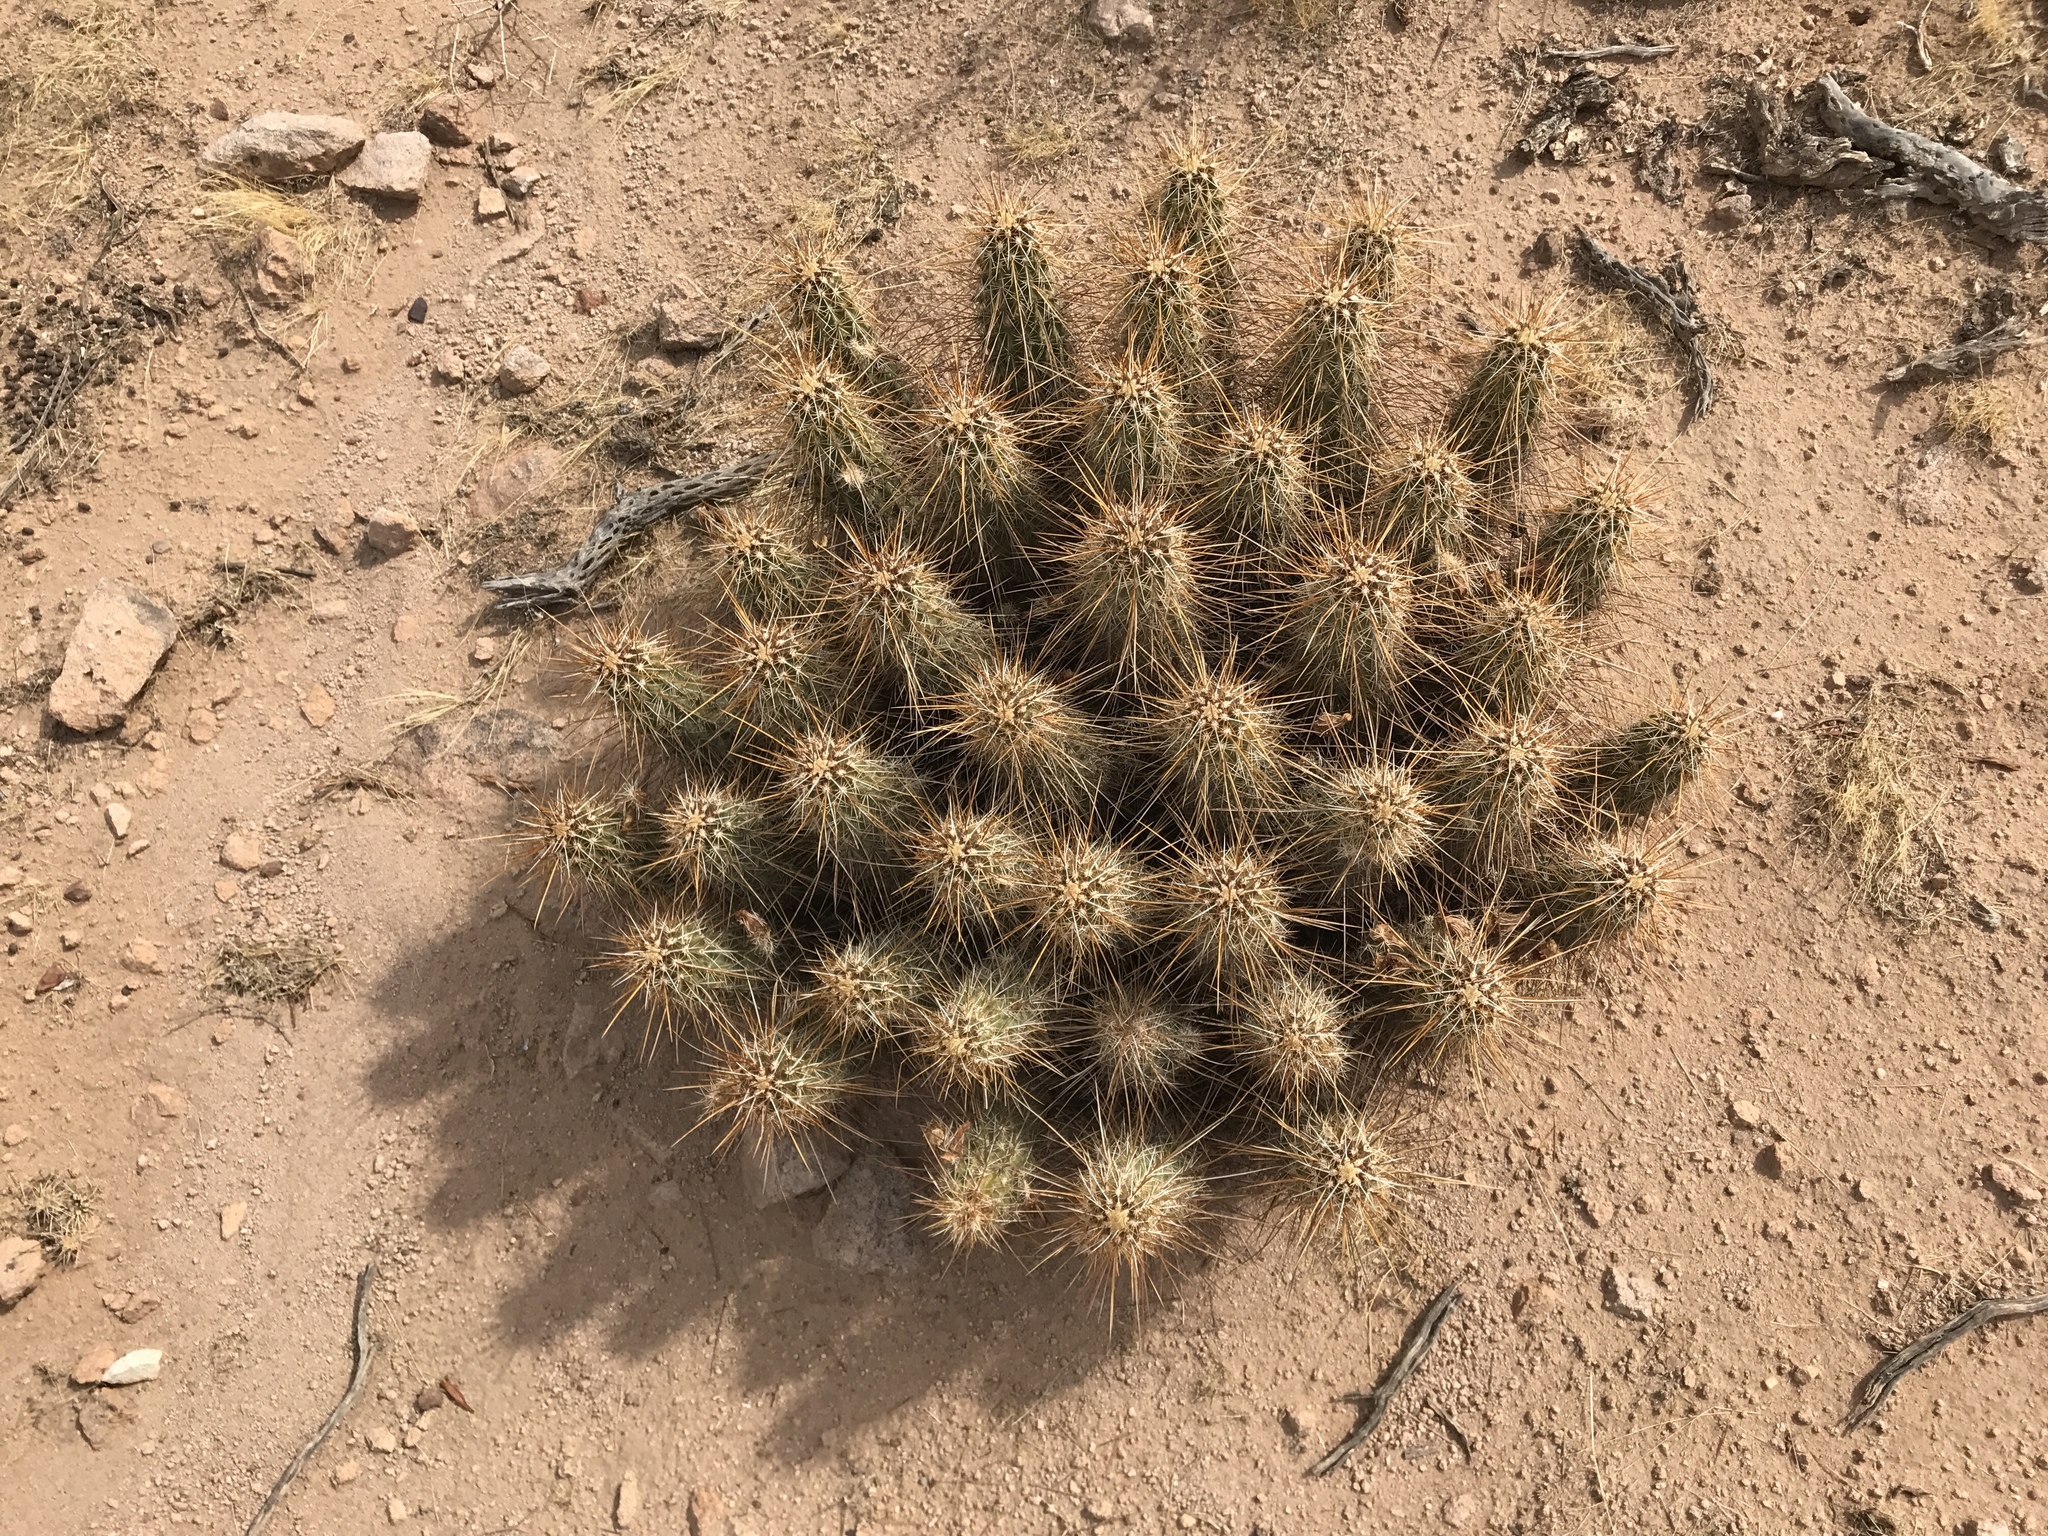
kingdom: Plantae
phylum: Tracheophyta
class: Magnoliopsida
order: Caryophyllales
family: Cactaceae
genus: Echinocereus
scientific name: Echinocereus engelmannii
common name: Engelmann's hedgehog cactus
